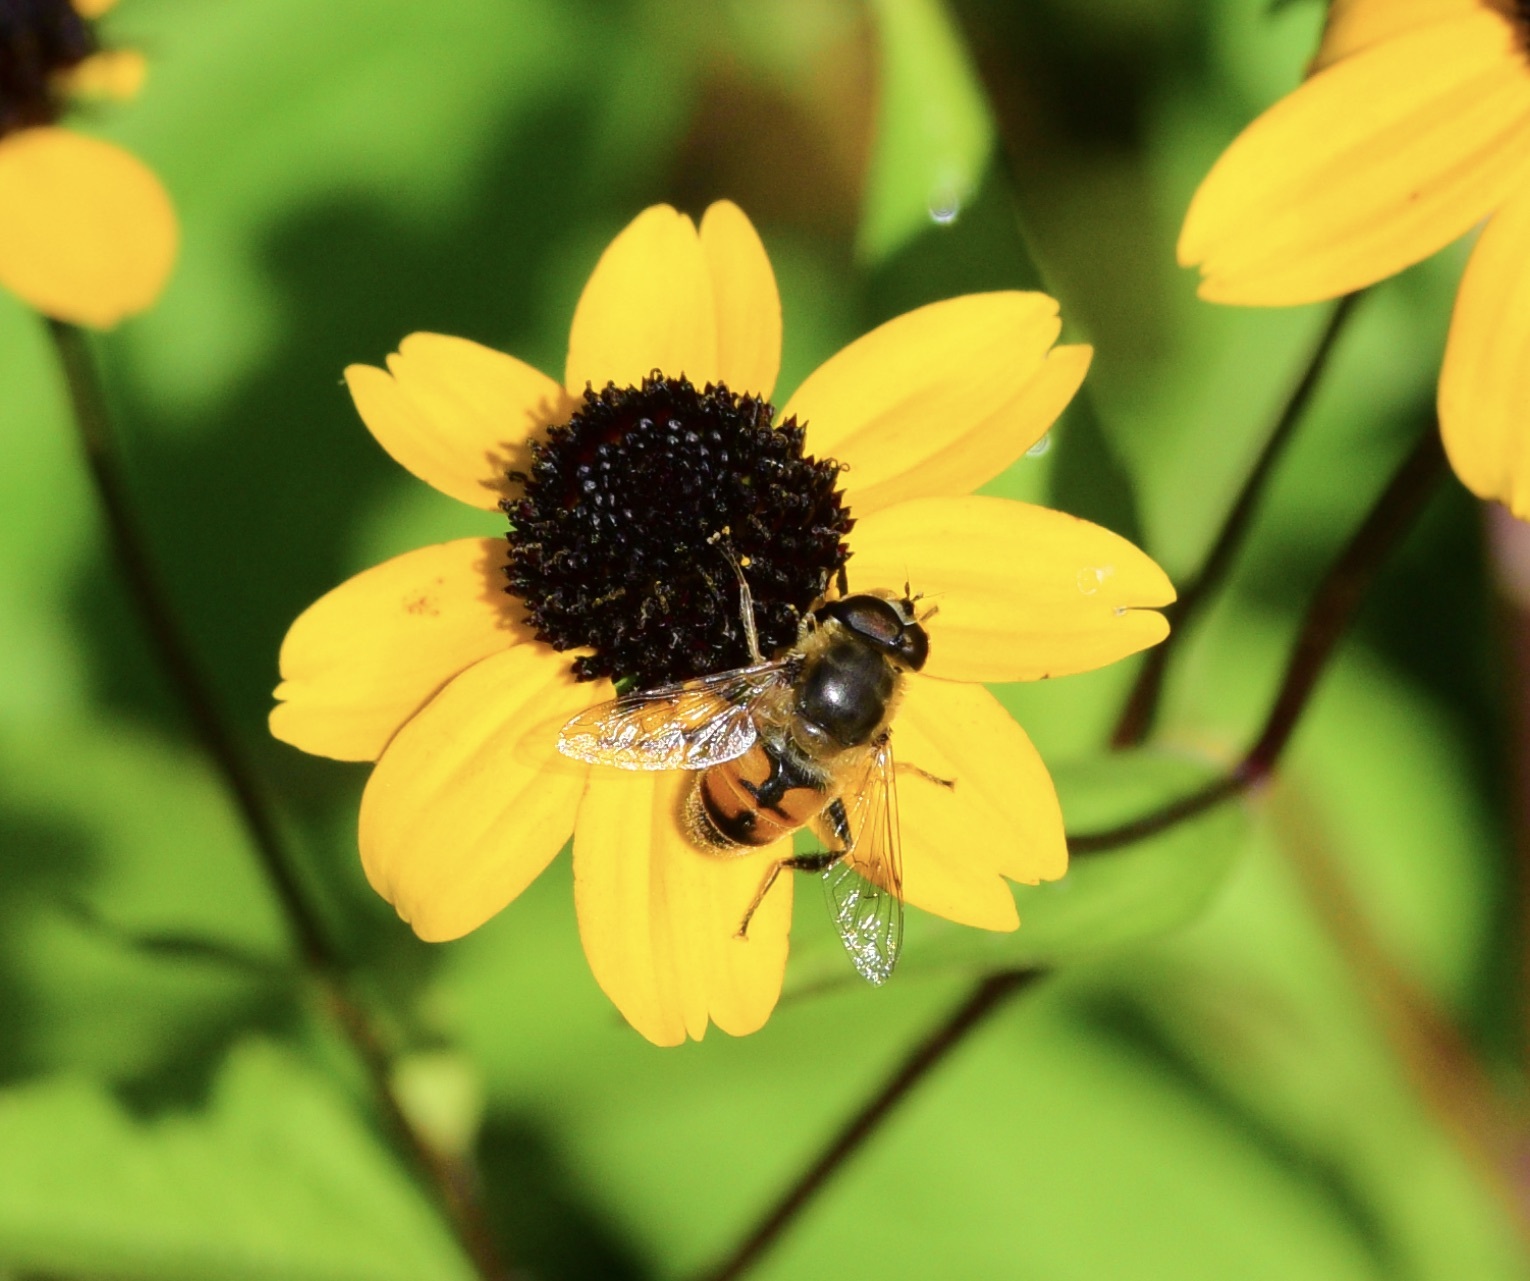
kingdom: Animalia
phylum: Arthropoda
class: Insecta
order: Diptera
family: Syrphidae
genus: Eristalis
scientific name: Eristalis tenax
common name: Drone fly
